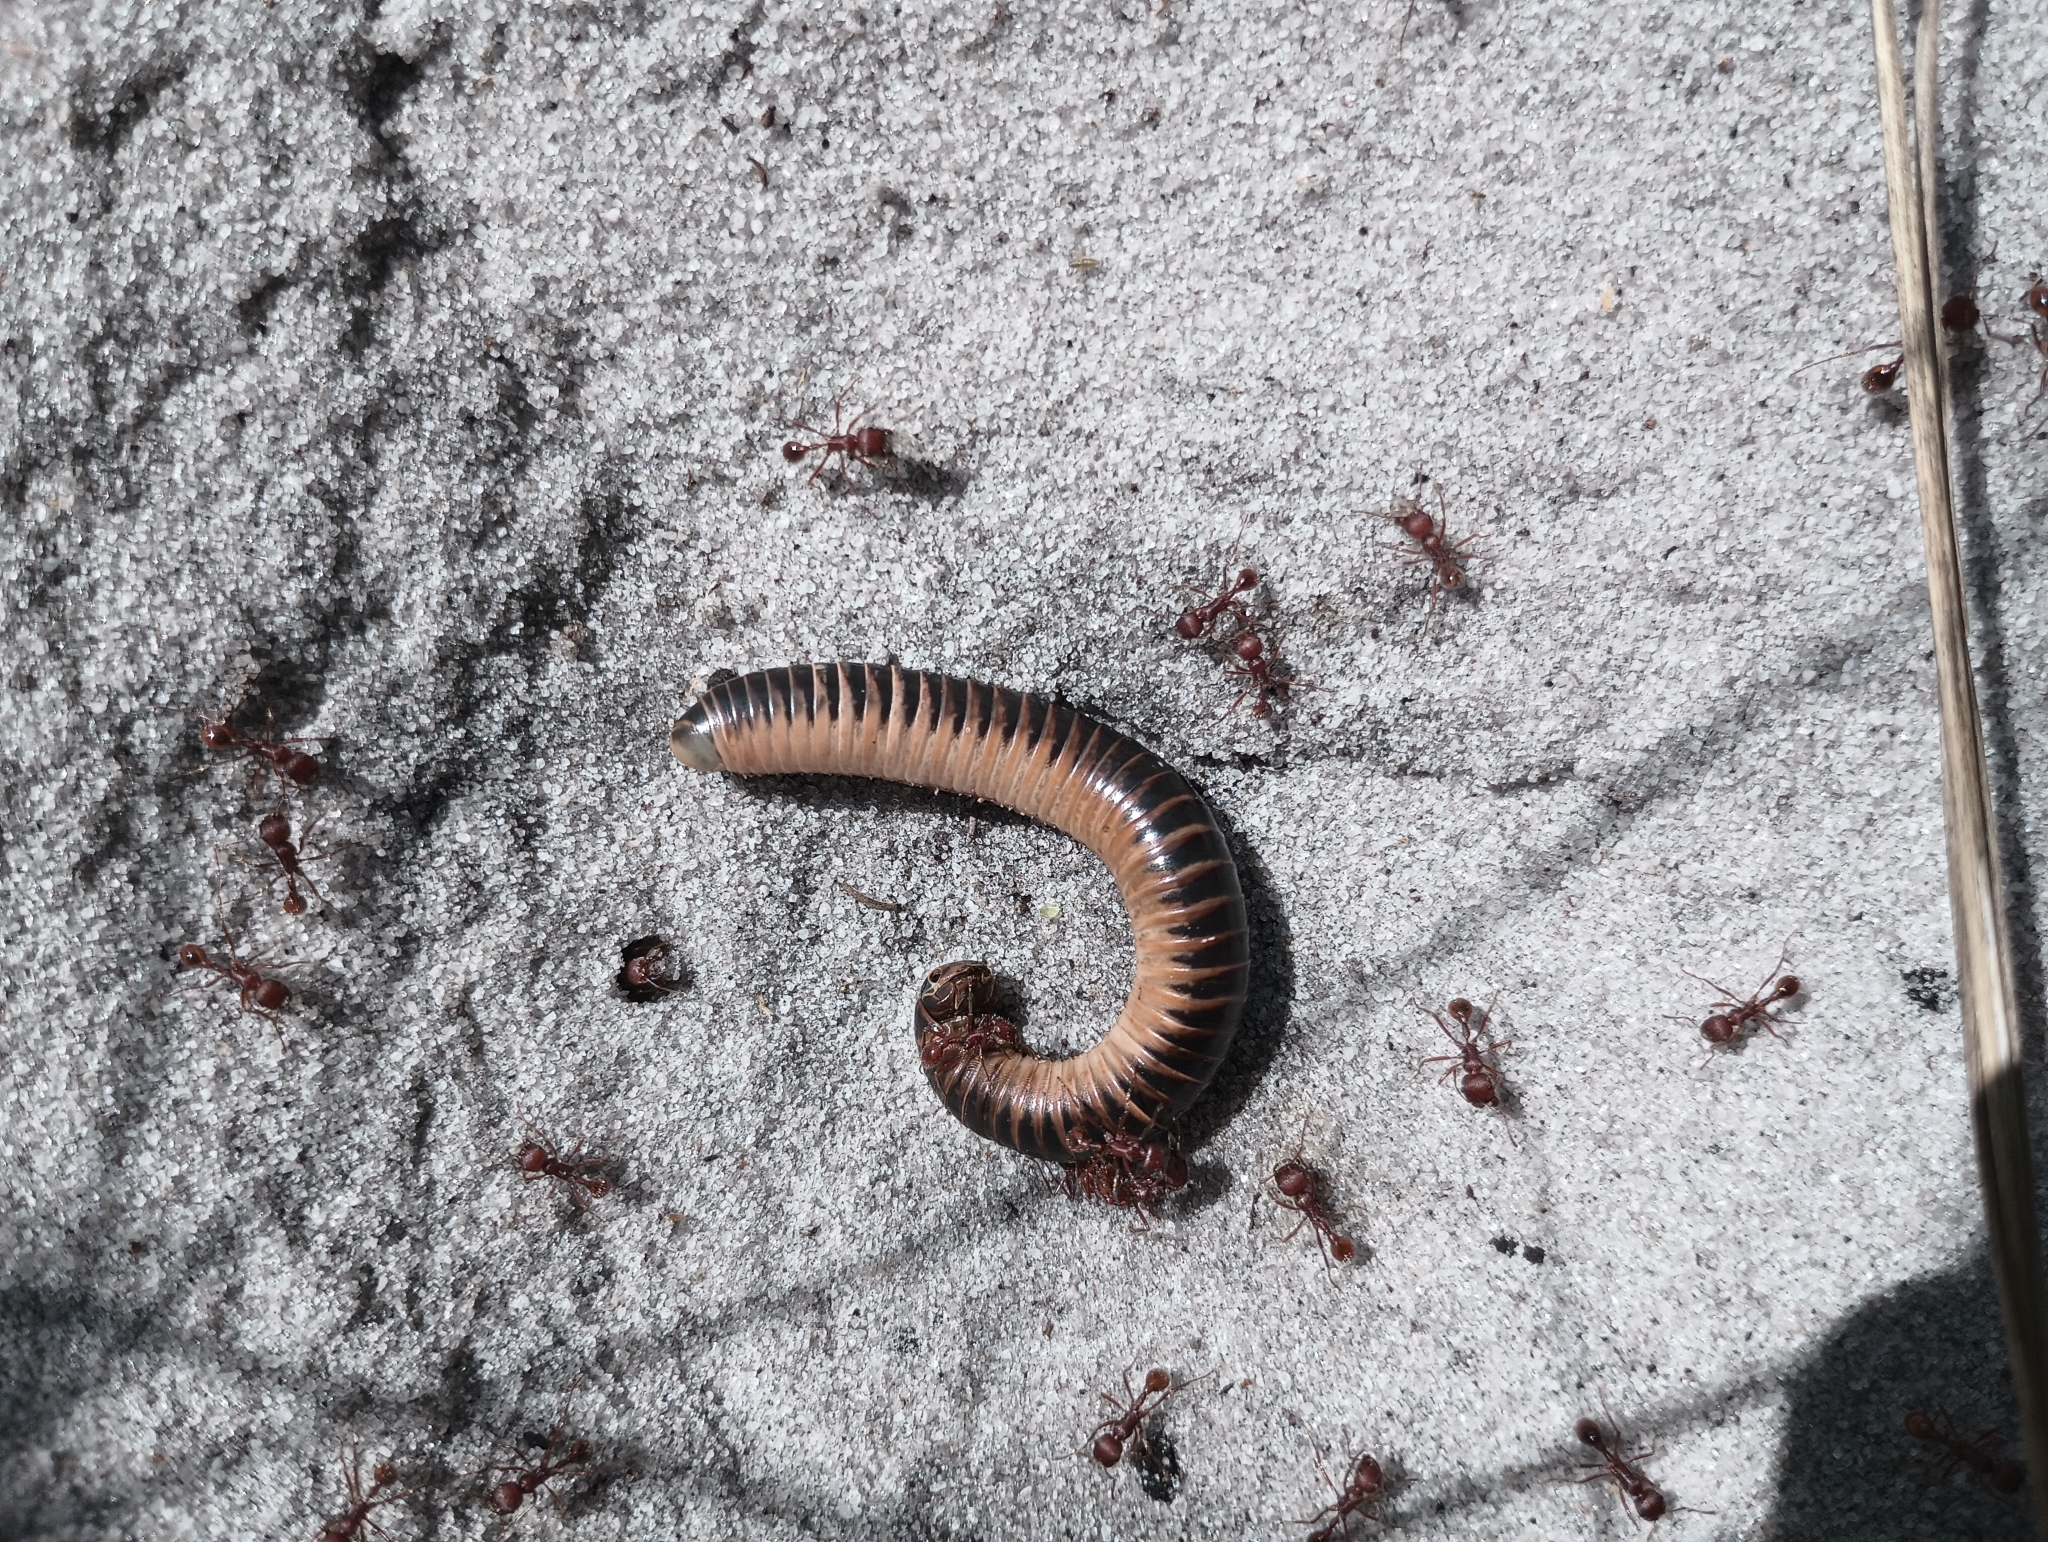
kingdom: Animalia
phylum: Arthropoda
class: Diplopoda
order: Spirobolida
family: Spirobolidae
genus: Chicobolus
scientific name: Chicobolus spinigerus
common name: Florida ivory millipede
